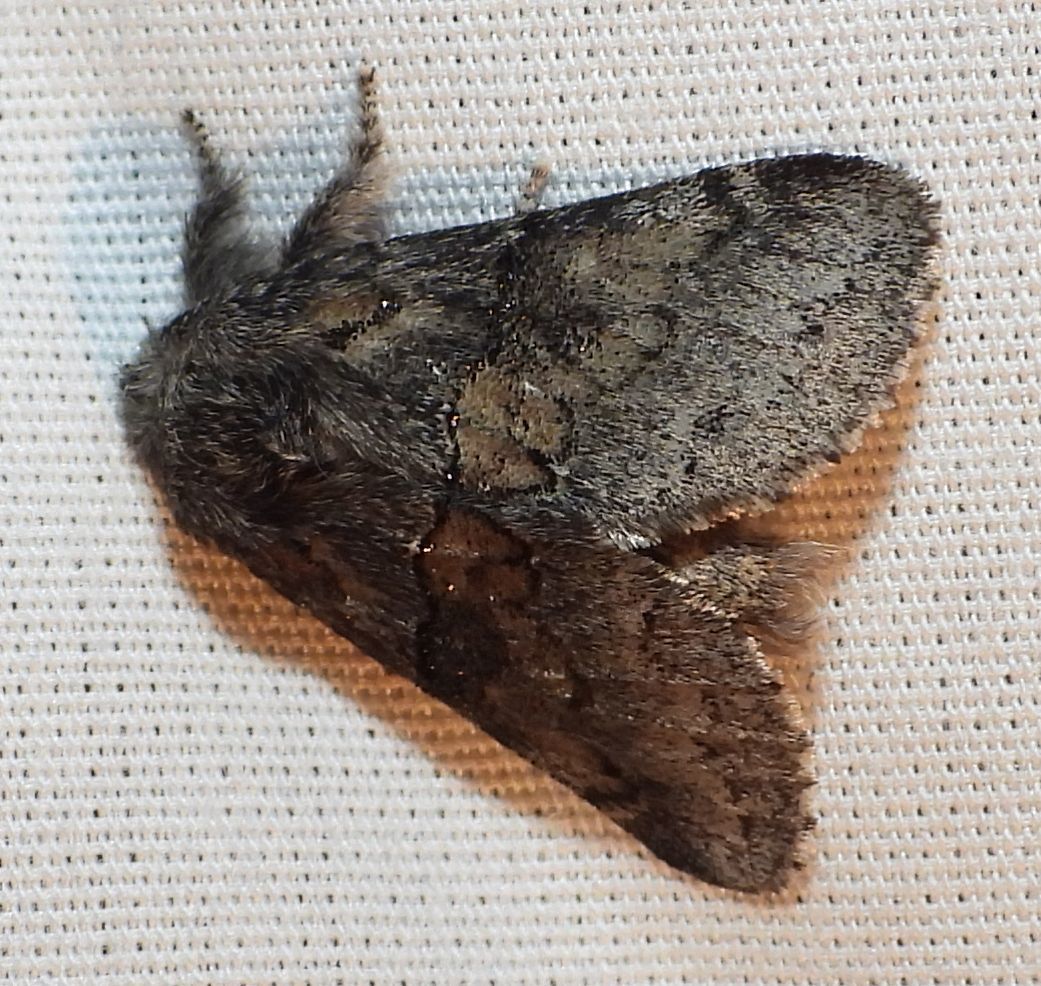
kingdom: Animalia
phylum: Arthropoda
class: Insecta
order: Lepidoptera
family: Notodontidae
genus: Gluphisia
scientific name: Gluphisia septentrionis
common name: Common gluphisia
